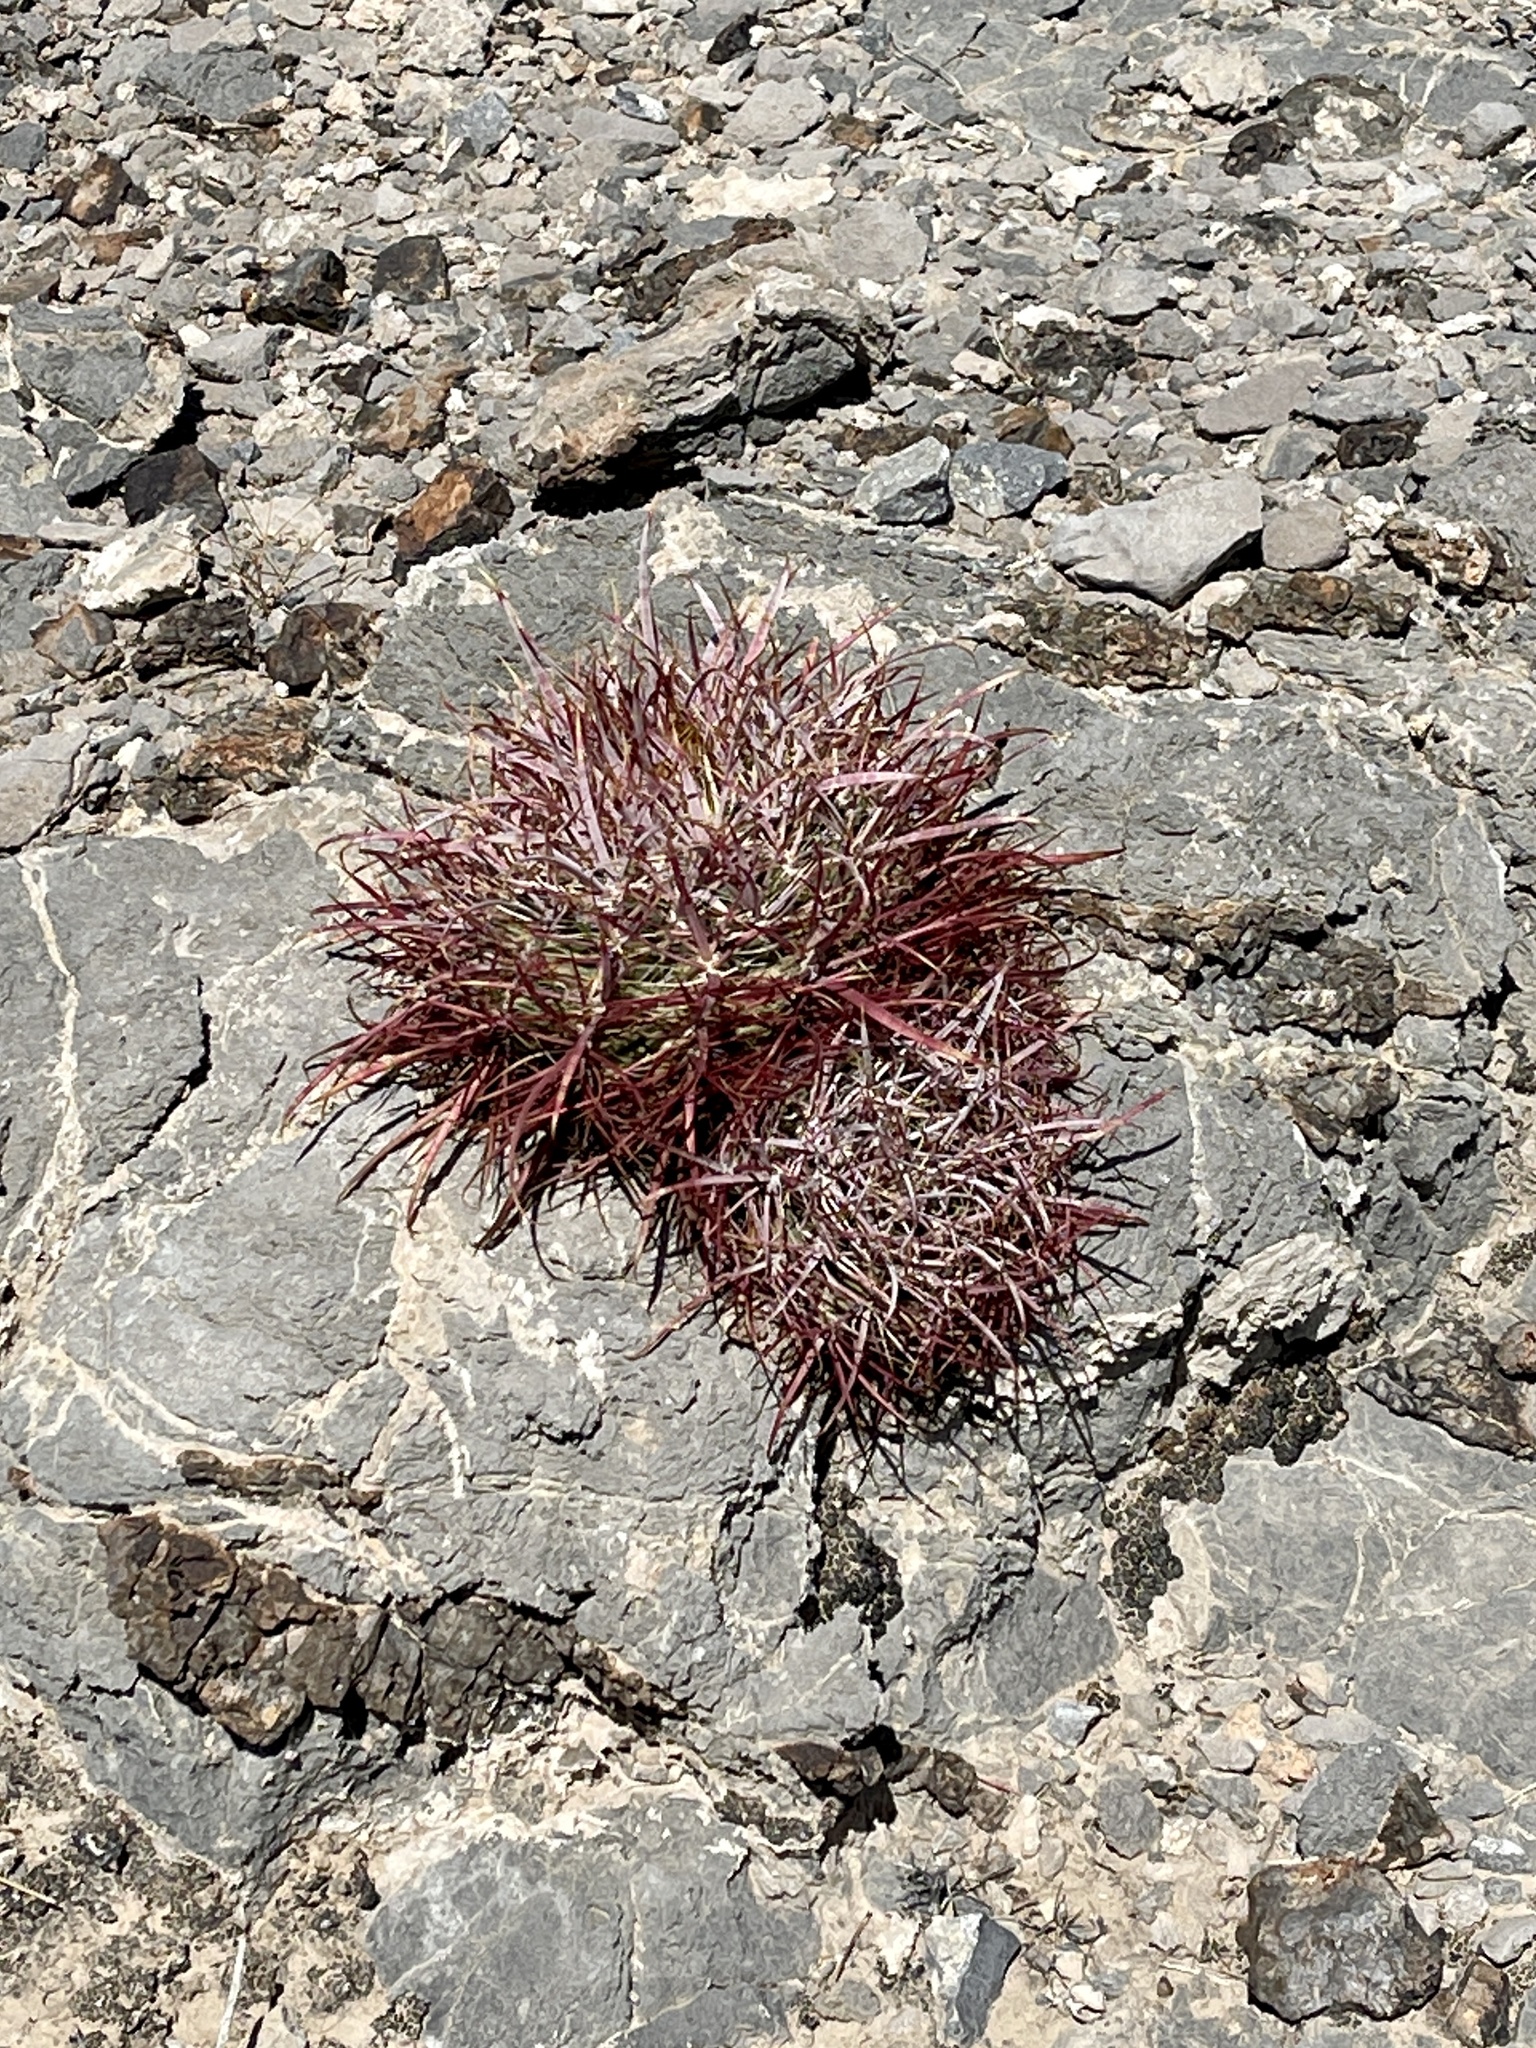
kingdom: Plantae
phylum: Tracheophyta
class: Magnoliopsida
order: Caryophyllales
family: Cactaceae
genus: Ferocactus
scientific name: Ferocactus cylindraceus
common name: California barrel cactus
